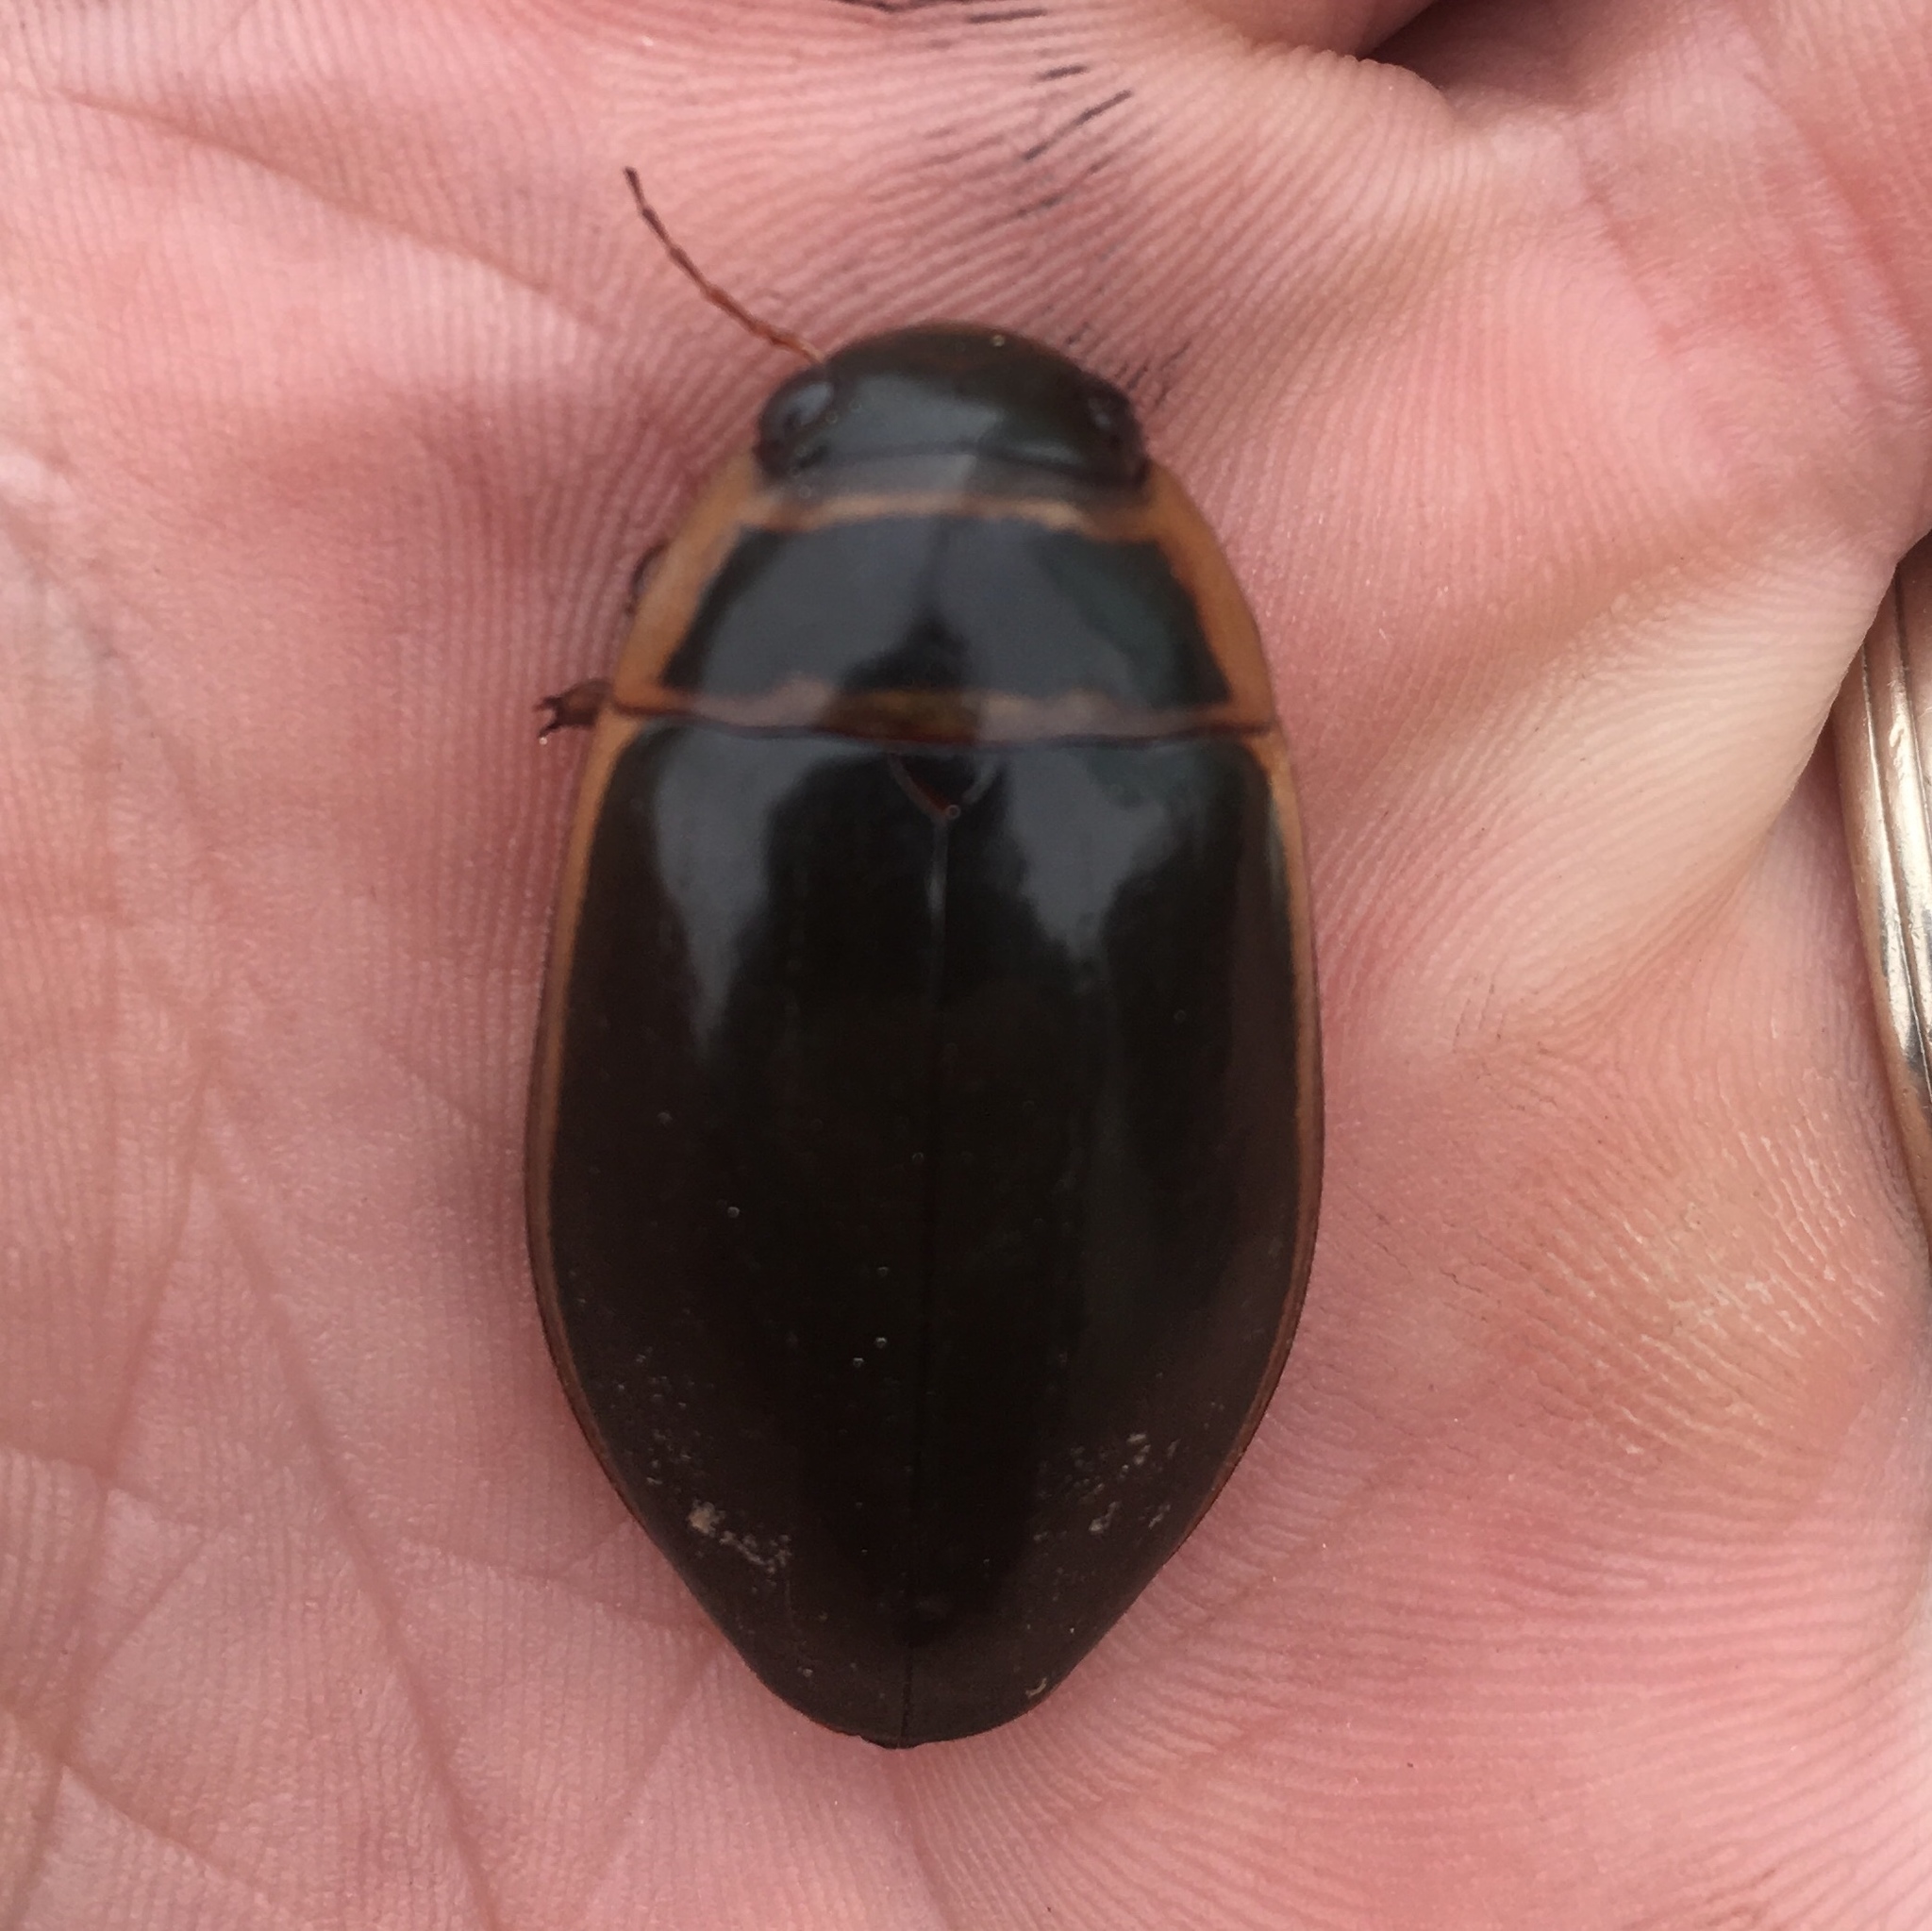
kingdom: Animalia
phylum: Arthropoda
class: Insecta
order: Coleoptera
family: Dytiscidae
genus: Dytiscus
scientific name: Dytiscus cordieri
